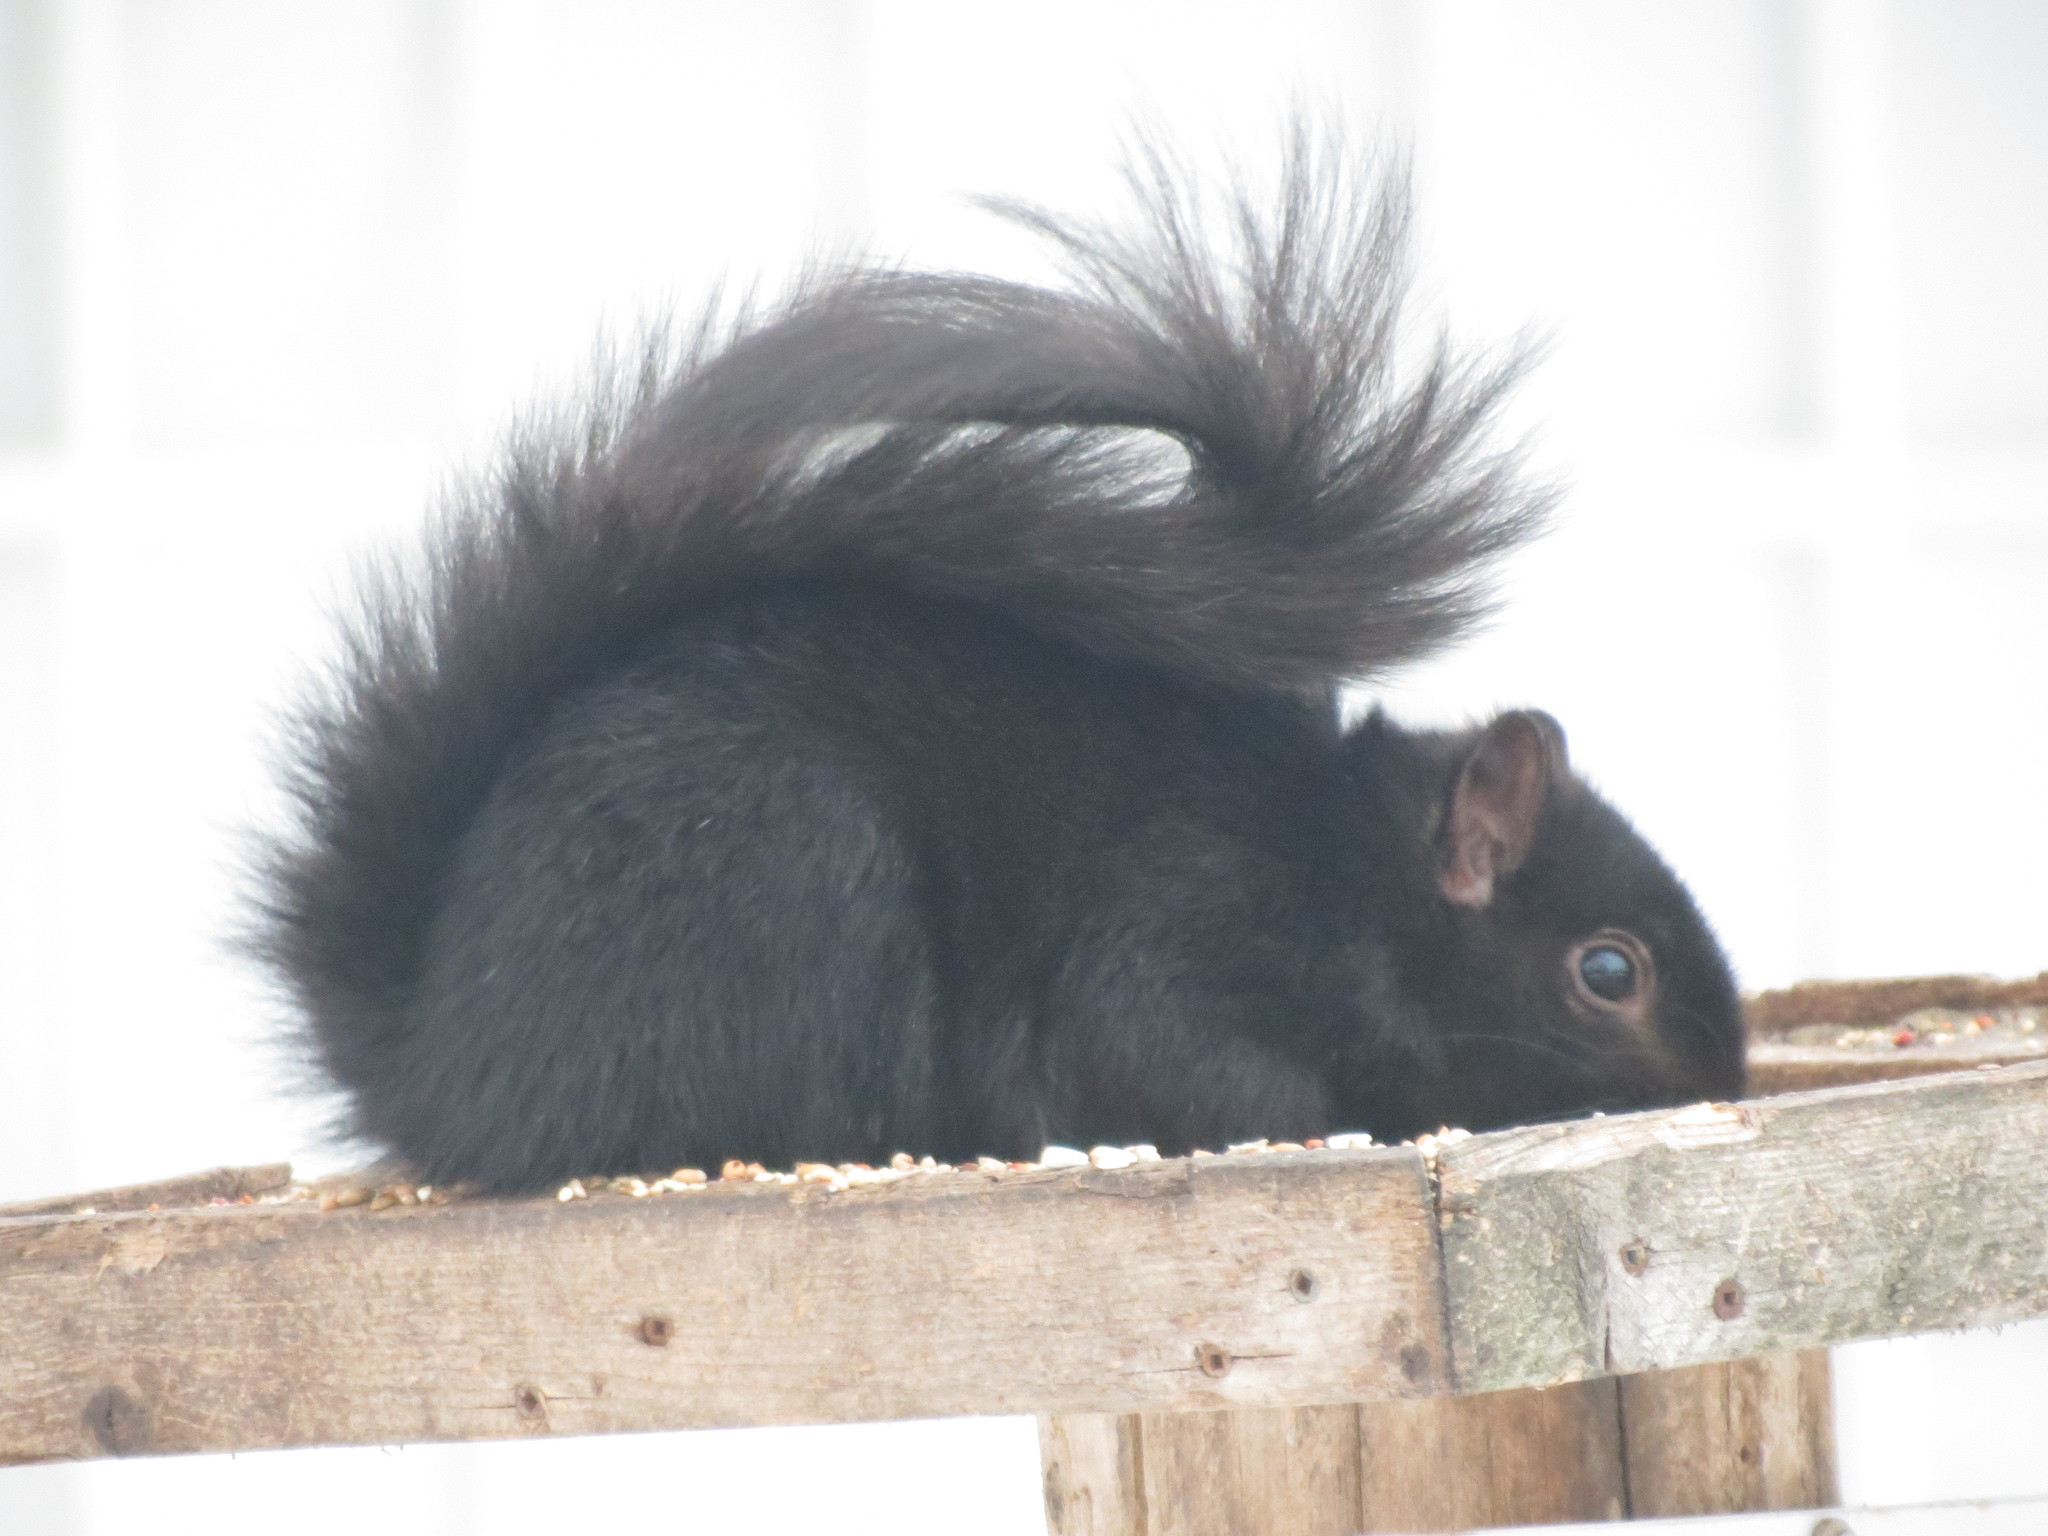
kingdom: Animalia
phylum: Chordata
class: Mammalia
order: Rodentia
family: Sciuridae
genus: Sciurus
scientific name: Sciurus carolinensis
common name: Eastern gray squirrel
